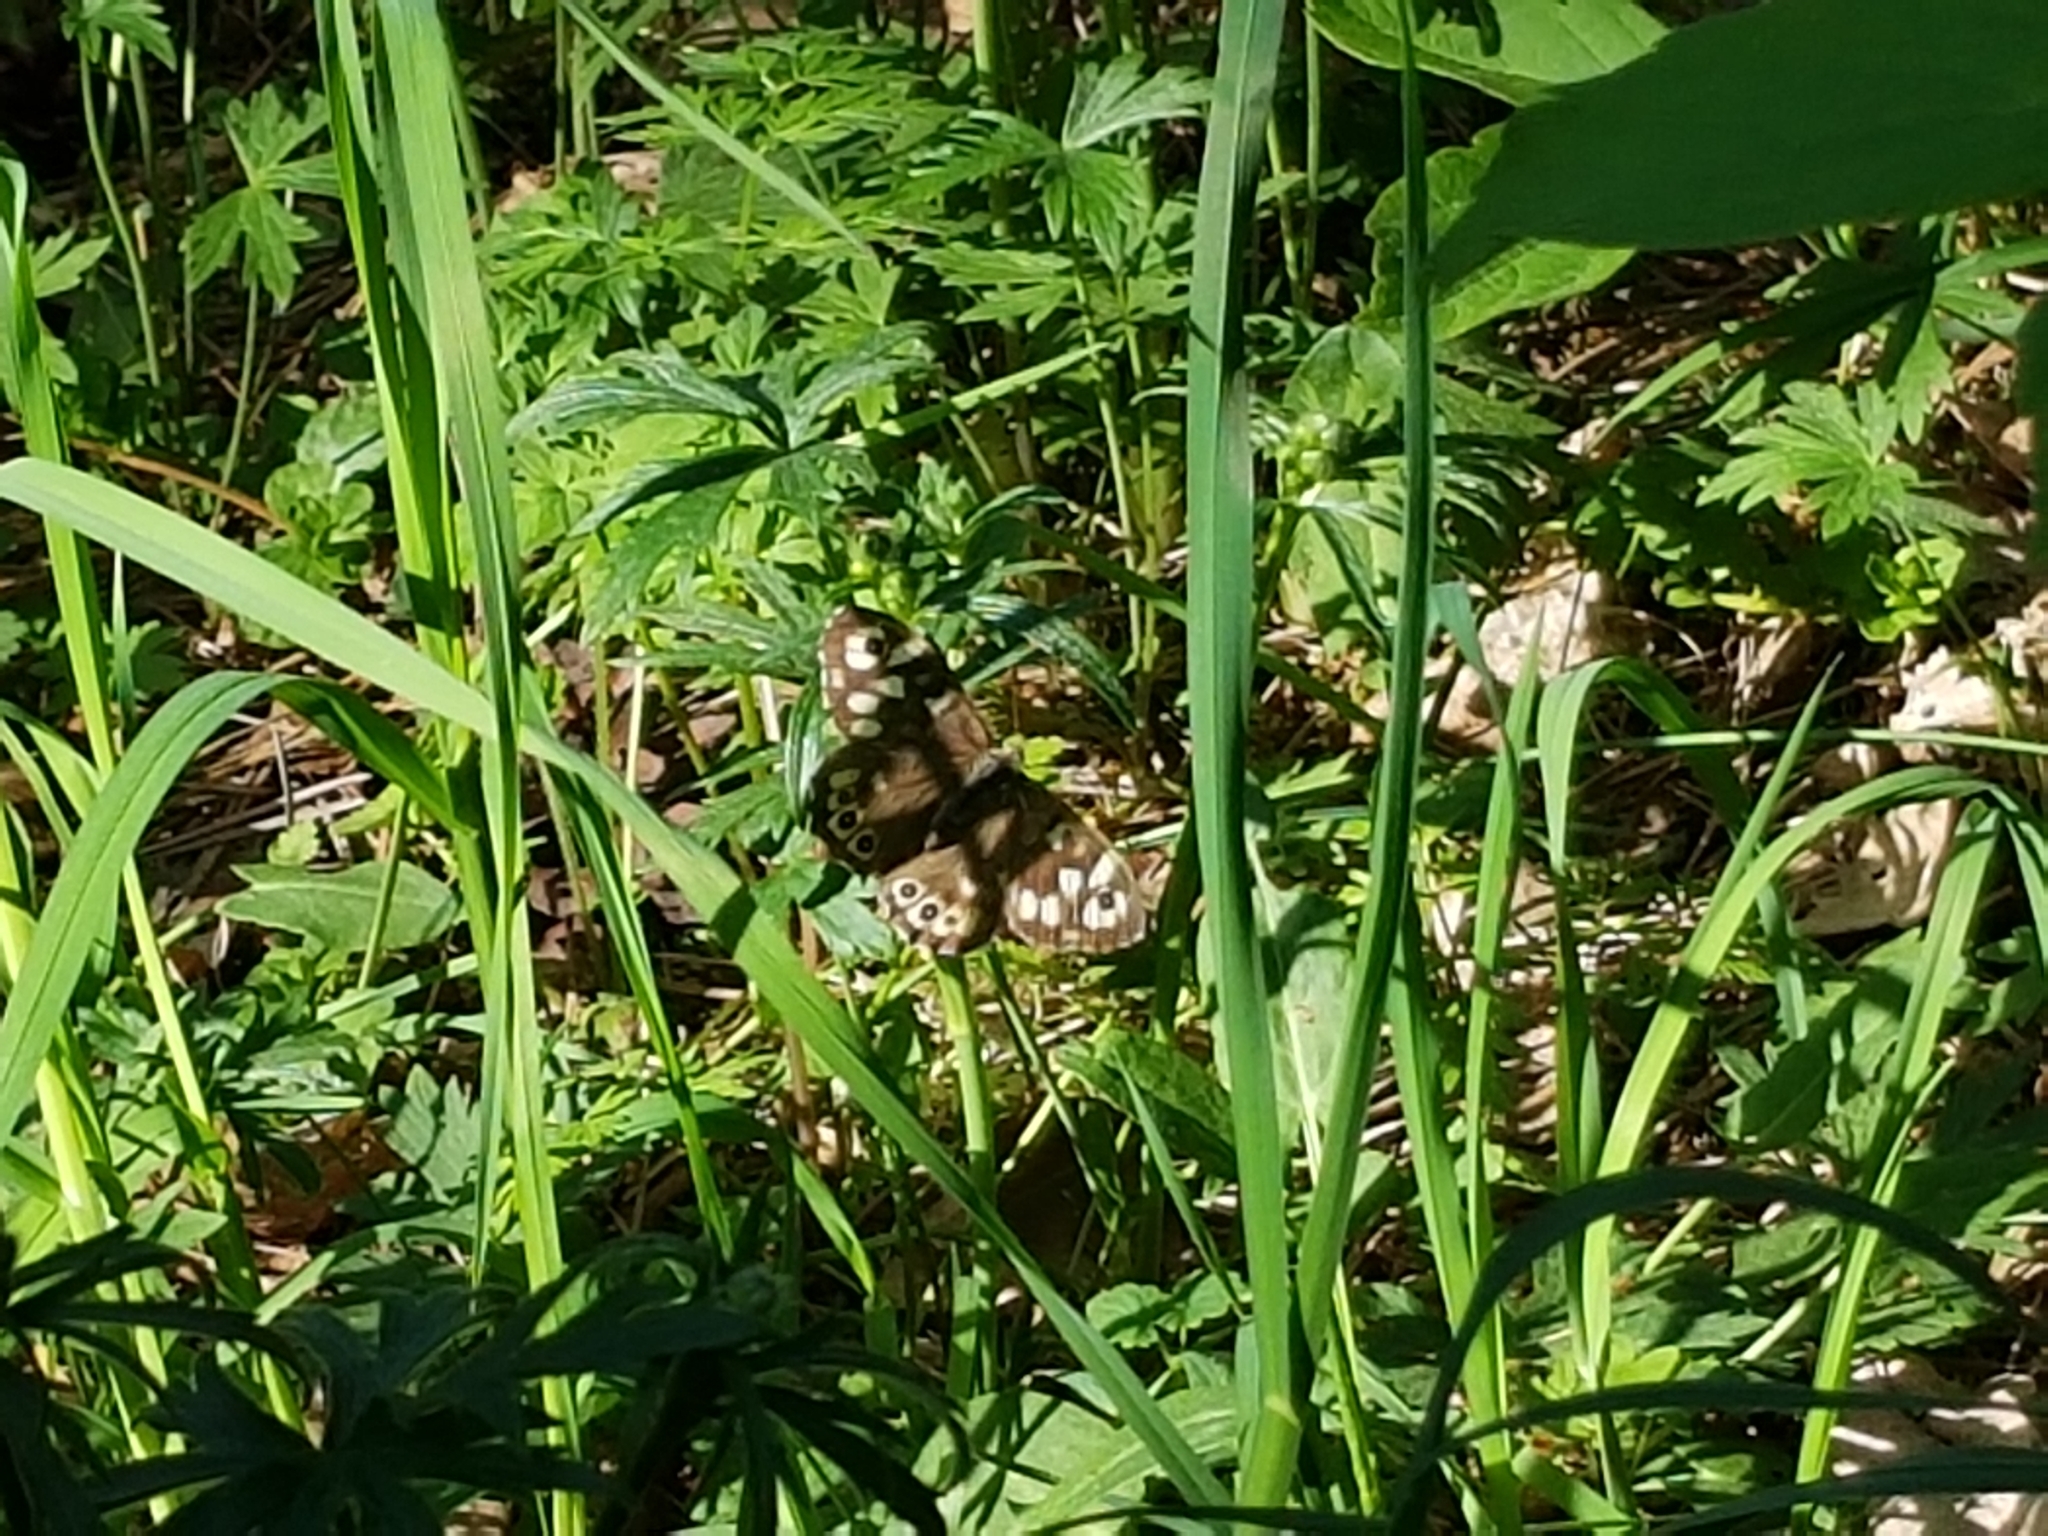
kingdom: Animalia
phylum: Arthropoda
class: Insecta
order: Lepidoptera
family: Nymphalidae
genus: Pararge
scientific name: Pararge aegeria
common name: Speckled wood
